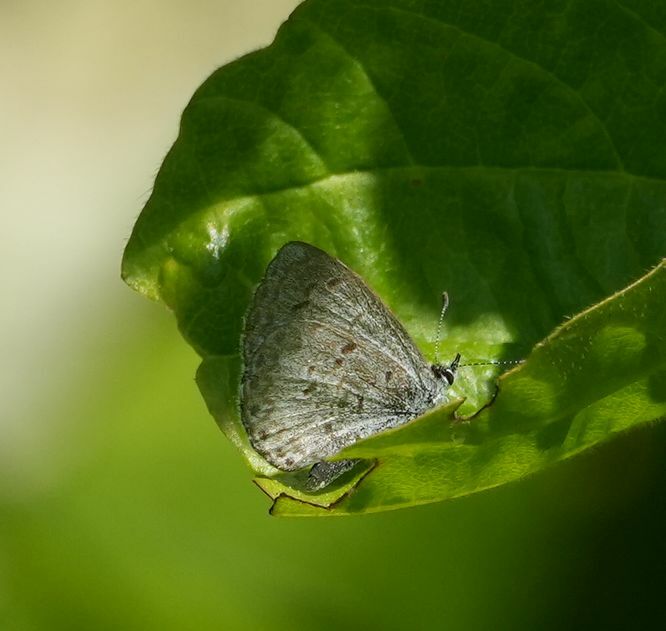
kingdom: Animalia
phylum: Arthropoda
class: Insecta
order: Lepidoptera
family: Lycaenidae
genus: Celastrina
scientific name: Celastrina lucia
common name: Lucia azure
